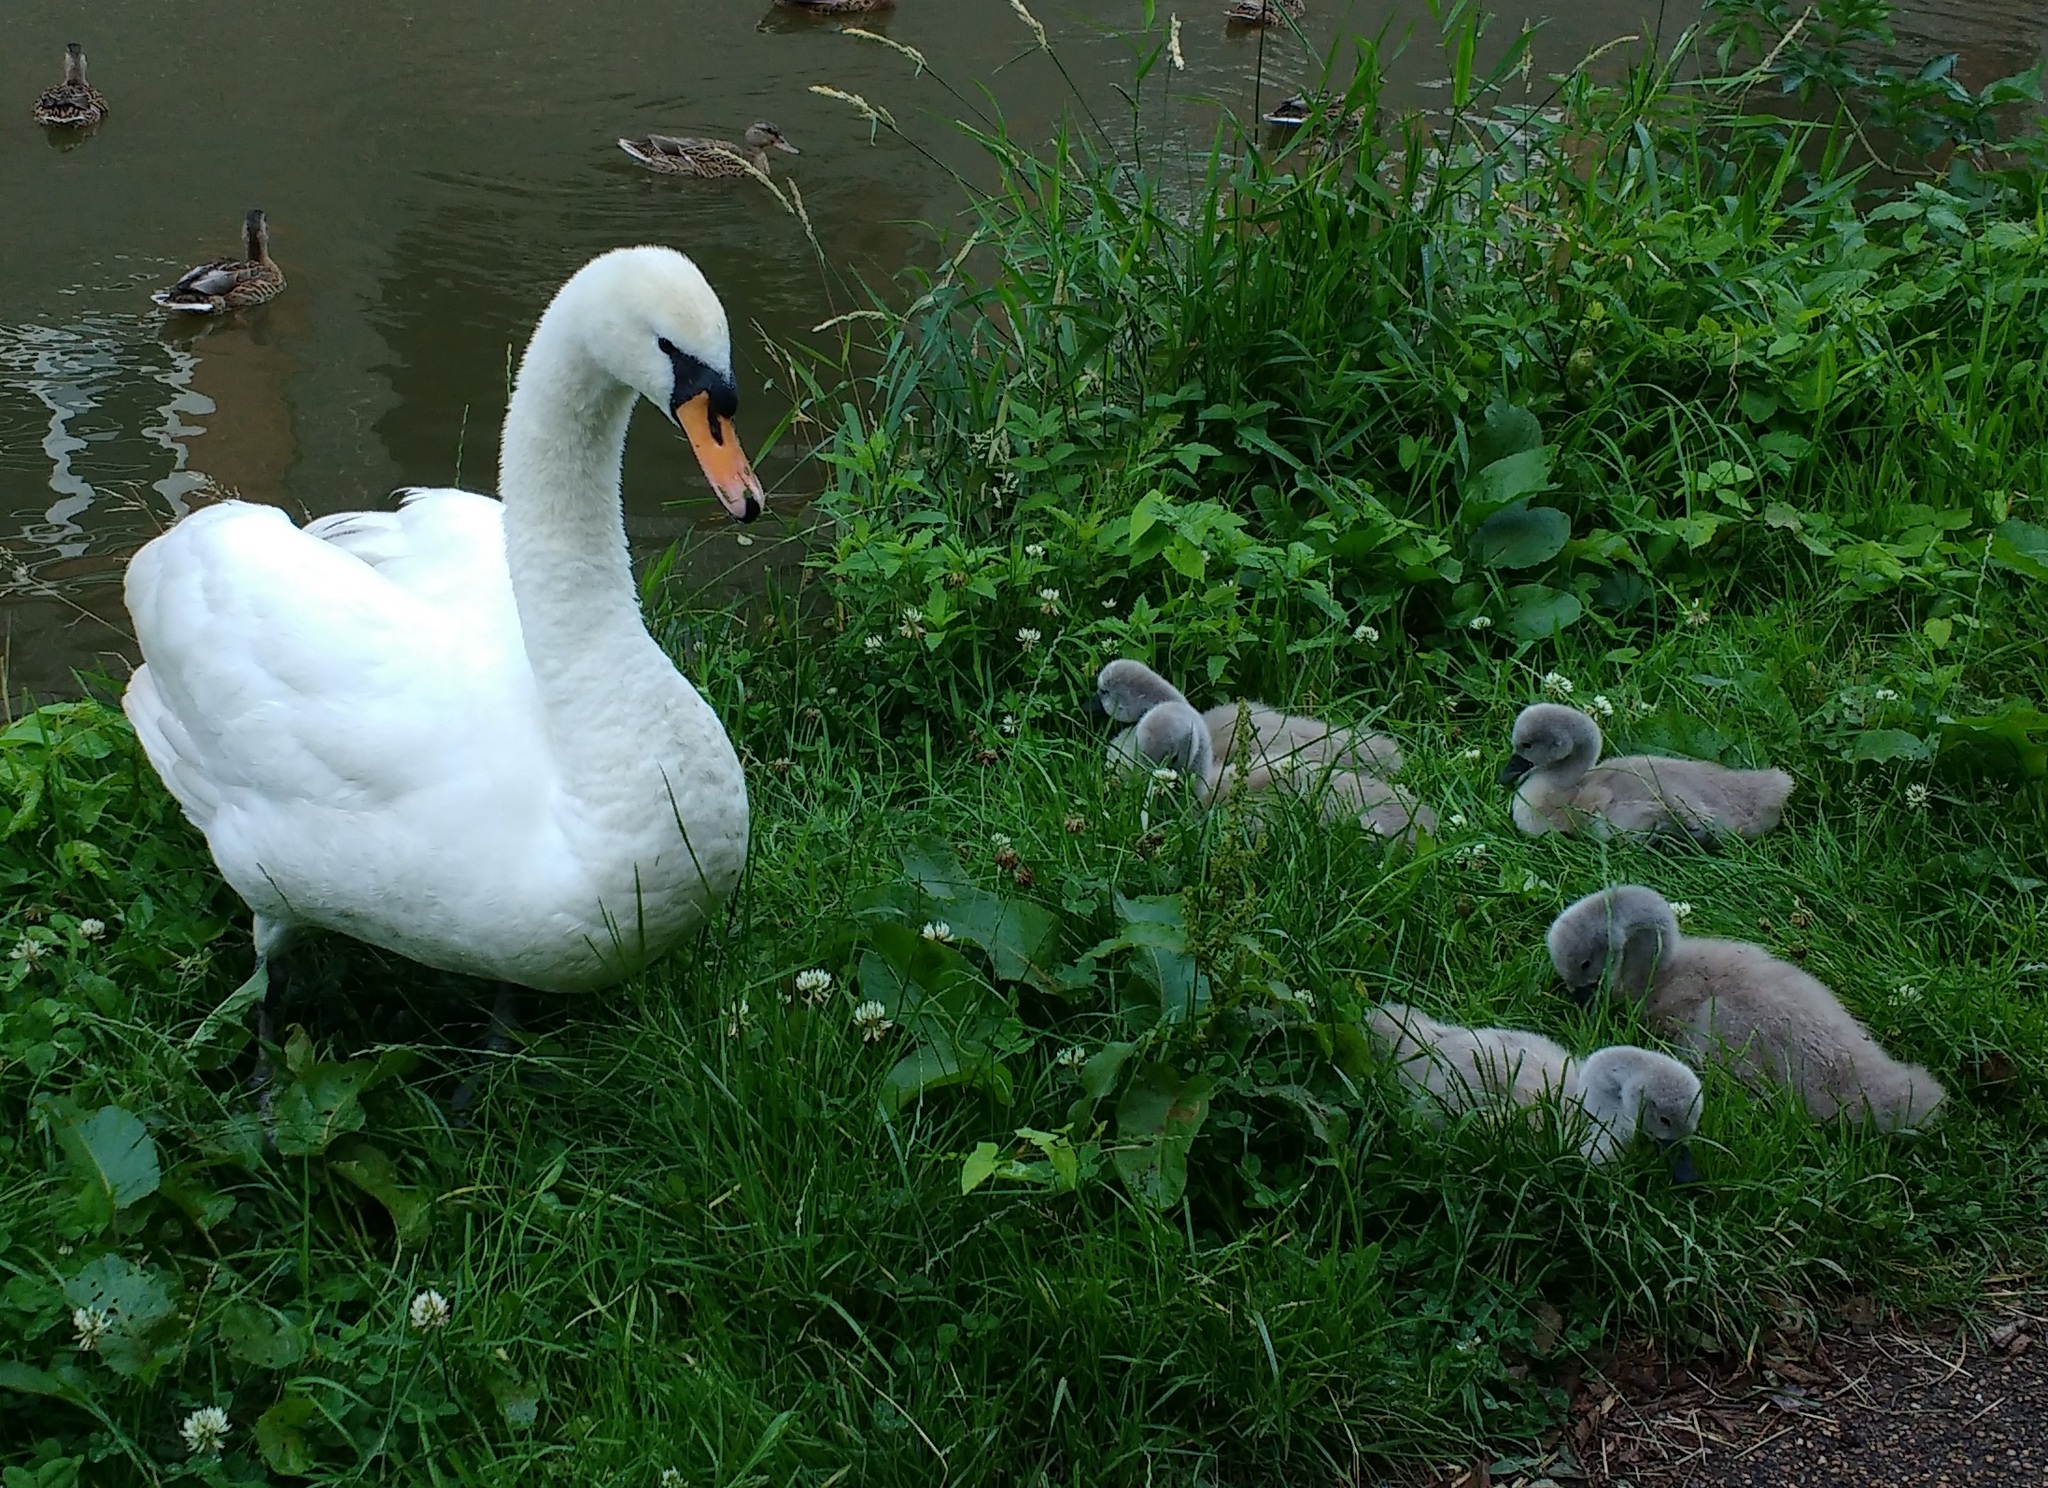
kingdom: Animalia
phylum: Chordata
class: Aves
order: Anseriformes
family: Anatidae
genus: Cygnus
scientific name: Cygnus olor
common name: Mute swan
